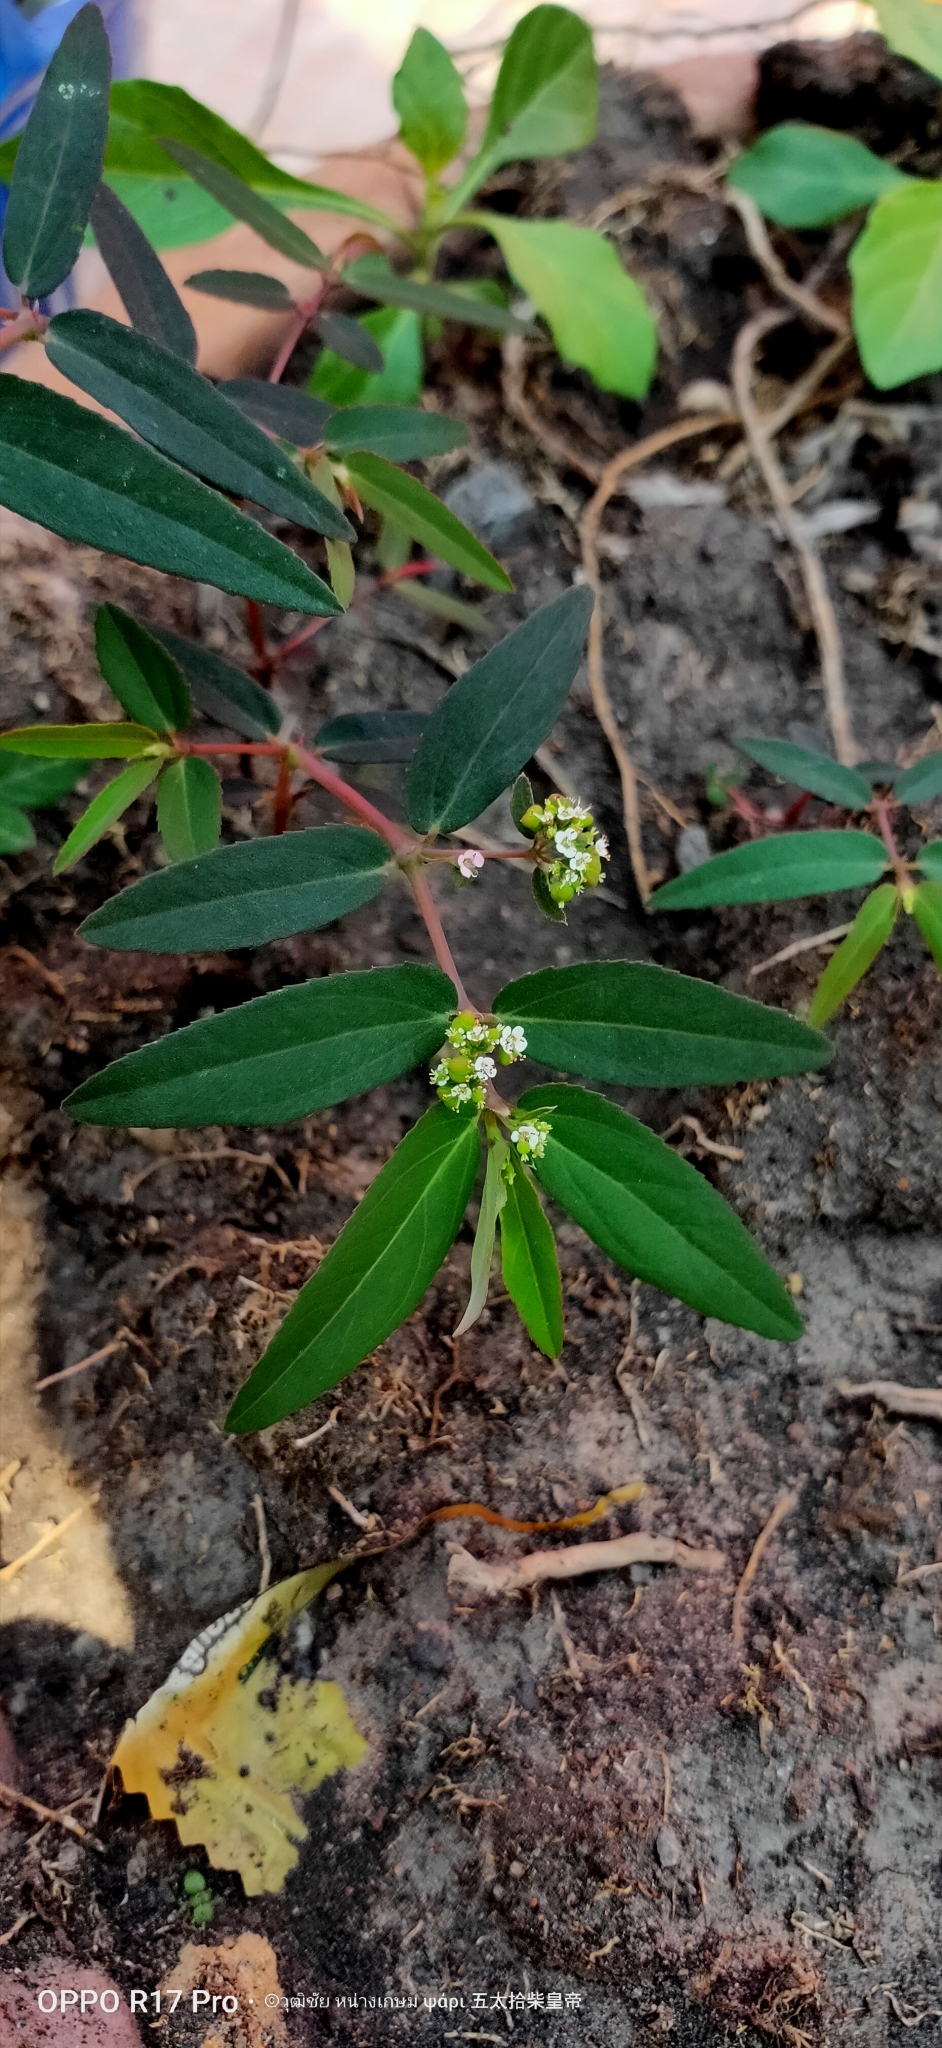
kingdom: Plantae
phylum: Tracheophyta
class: Magnoliopsida
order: Malpighiales
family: Euphorbiaceae
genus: Euphorbia
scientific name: Euphorbia hypericifolia
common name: Graceful sandmat
